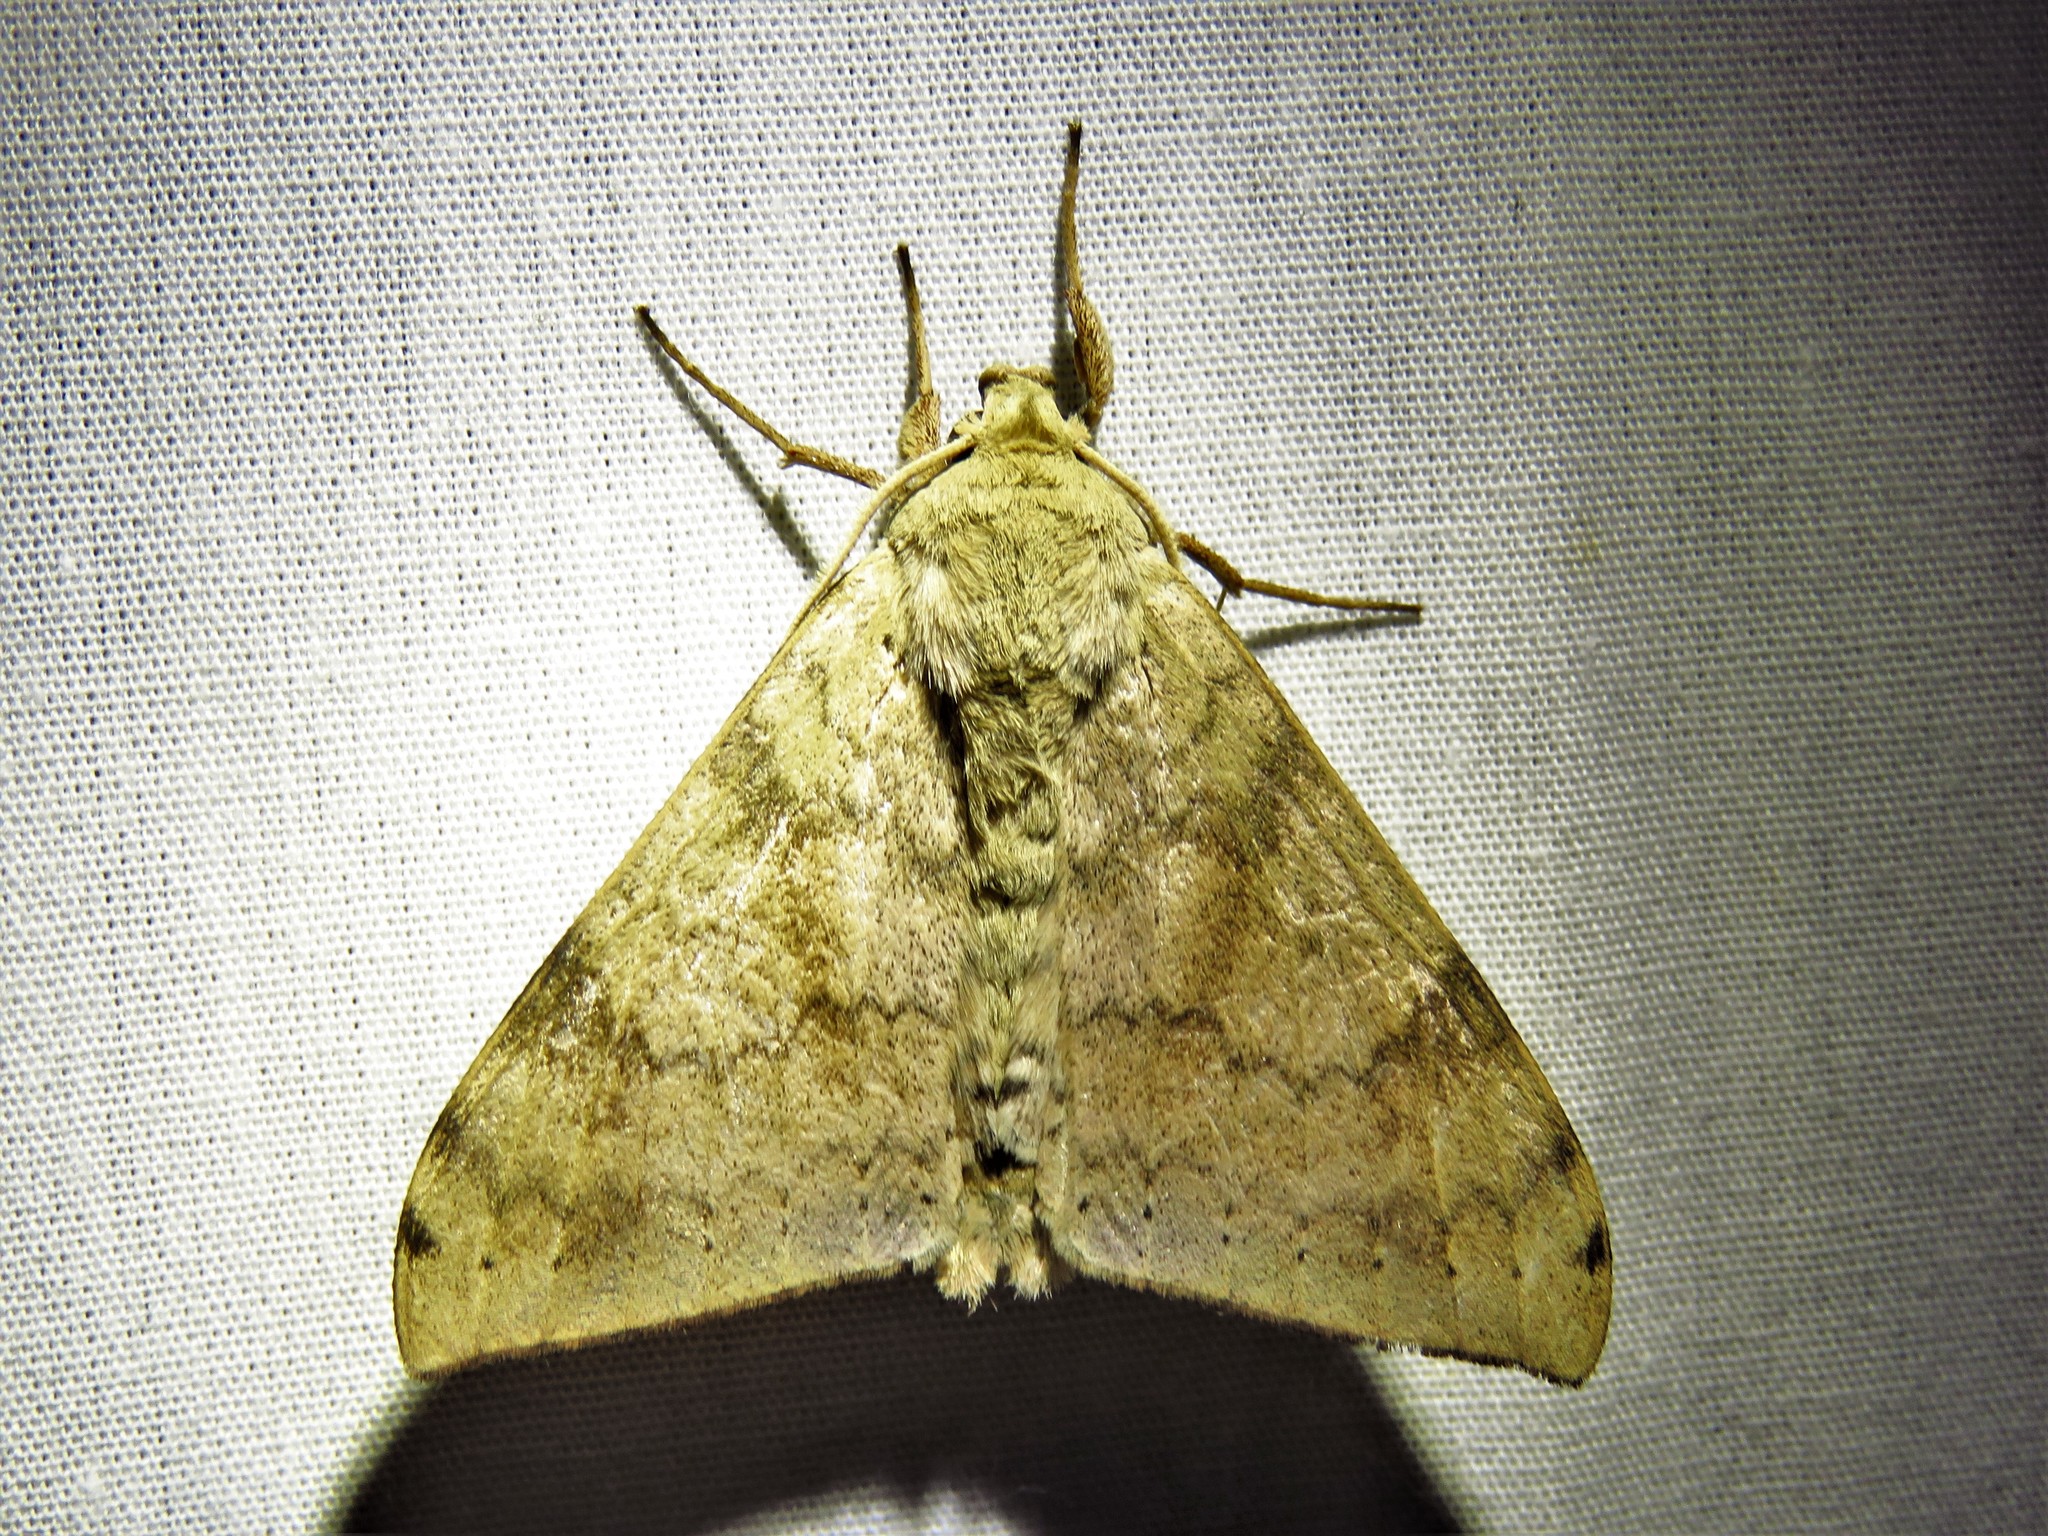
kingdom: Animalia
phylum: Arthropoda
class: Insecta
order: Lepidoptera
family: Sphingidae
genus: Andriasa
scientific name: Andriasa contraria
